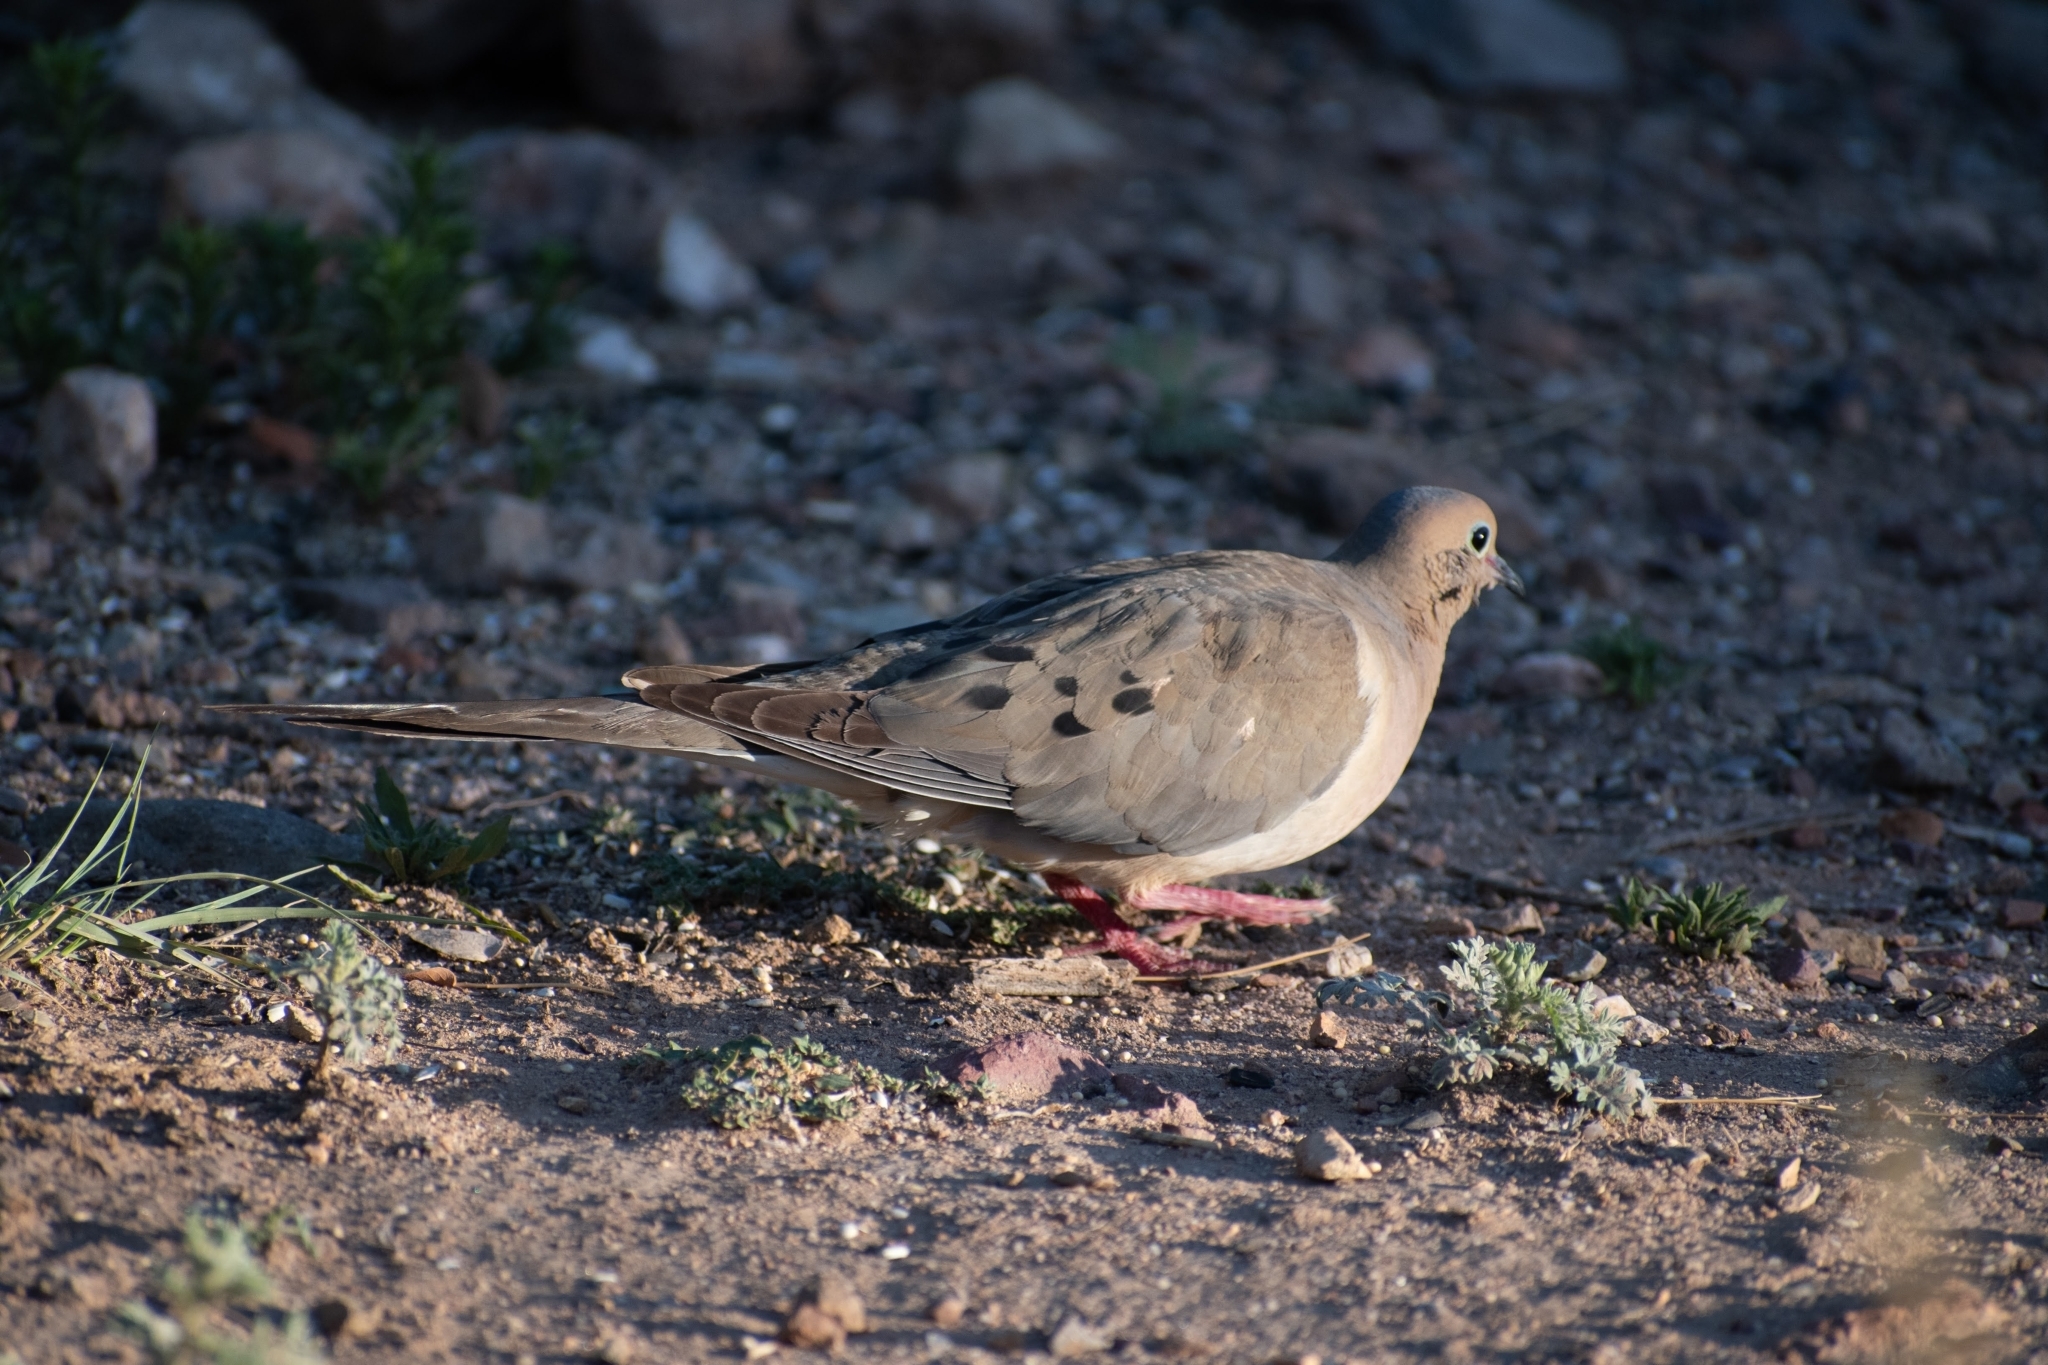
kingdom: Animalia
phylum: Chordata
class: Aves
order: Columbiformes
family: Columbidae
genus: Zenaida
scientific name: Zenaida macroura
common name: Mourning dove
